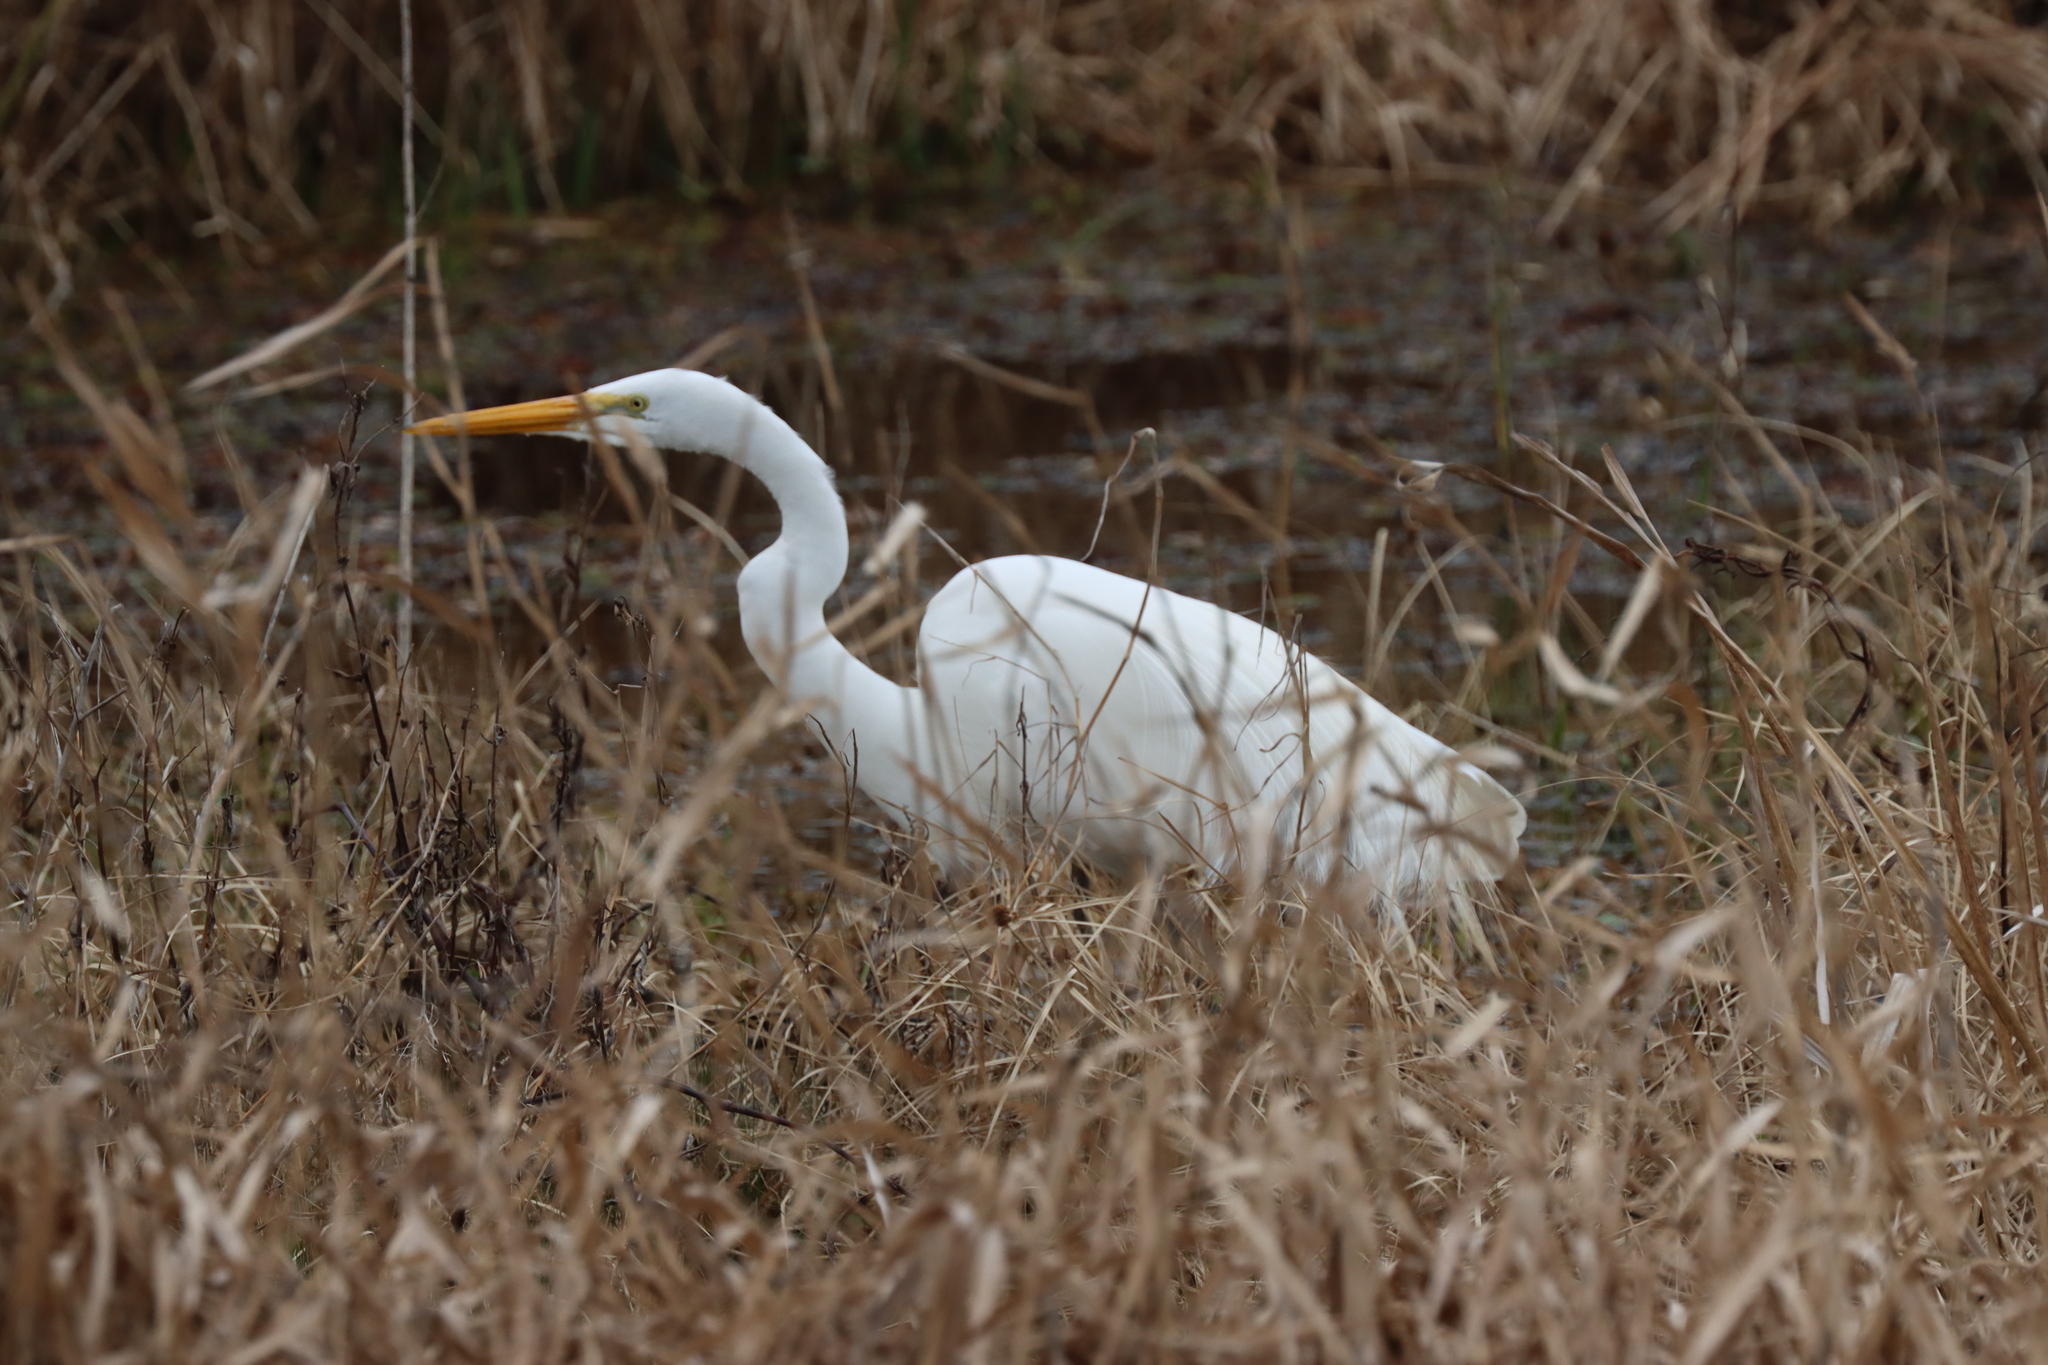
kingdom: Animalia
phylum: Chordata
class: Aves
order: Pelecaniformes
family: Ardeidae
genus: Ardea
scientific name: Ardea alba
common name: Great egret
